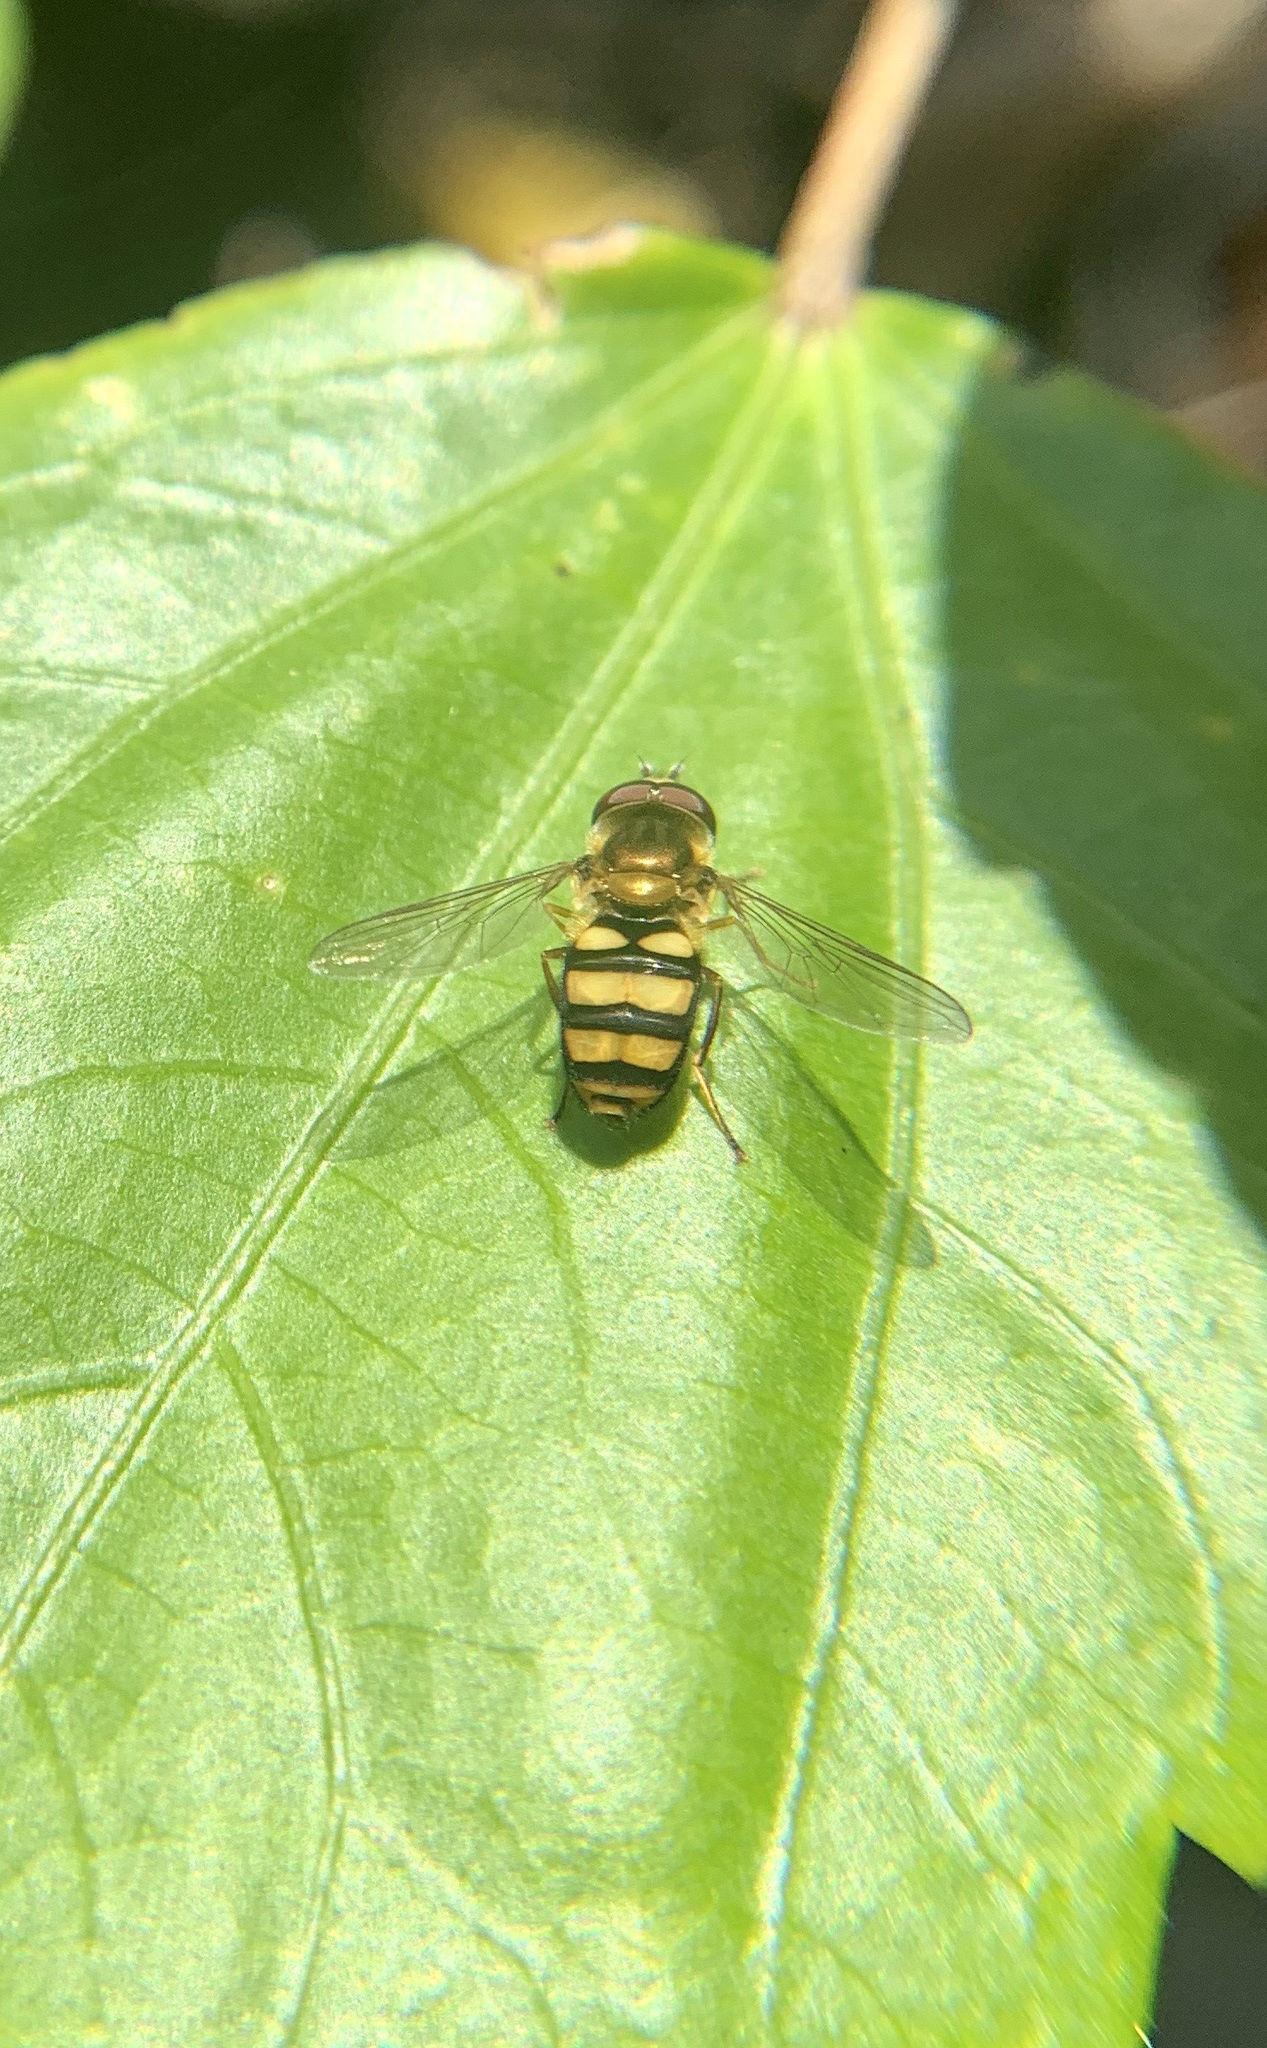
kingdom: Animalia
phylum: Arthropoda
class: Insecta
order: Diptera
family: Syrphidae
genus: Eupeodes
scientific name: Eupeodes
